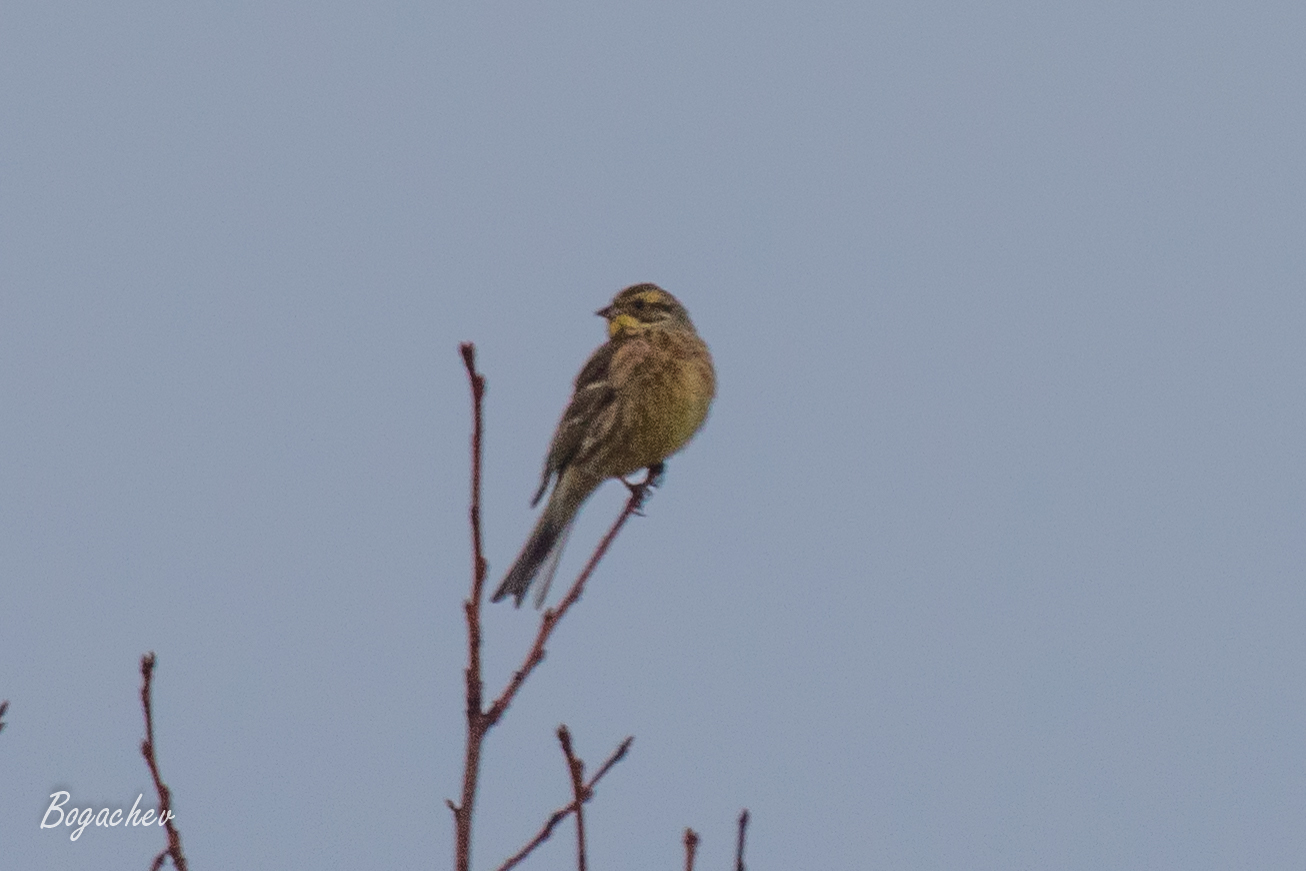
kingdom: Animalia
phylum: Chordata
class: Aves
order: Passeriformes
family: Emberizidae
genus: Emberiza
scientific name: Emberiza citrinella
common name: Yellowhammer
